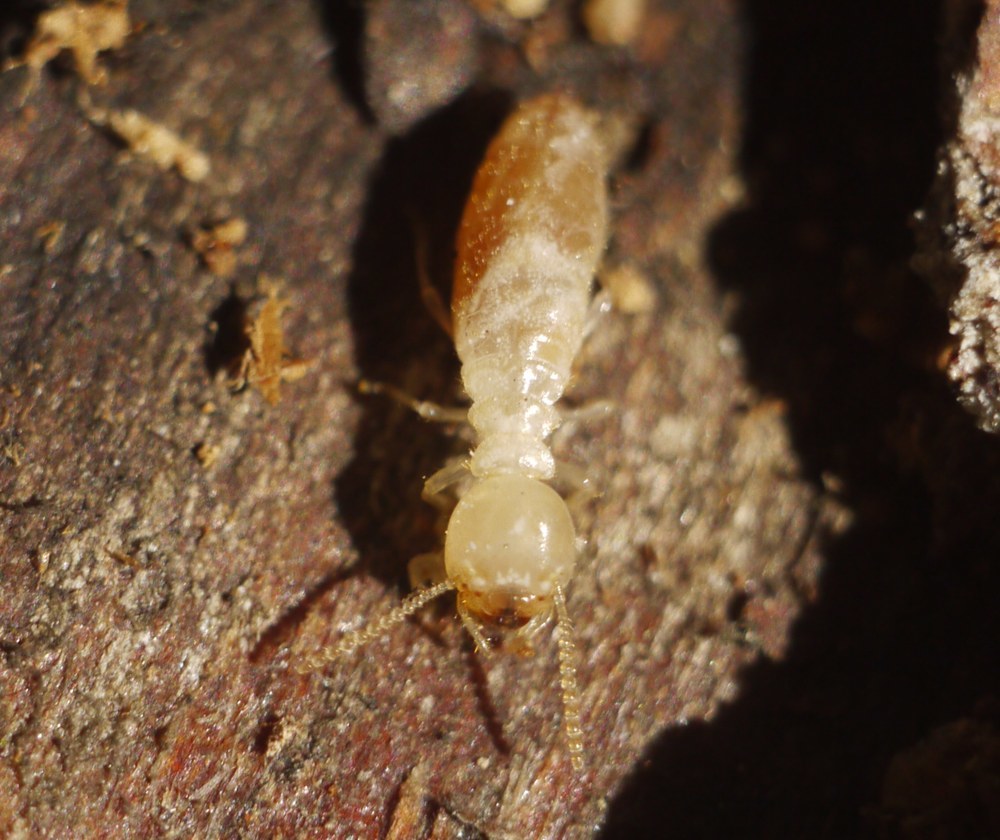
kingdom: Animalia
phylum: Arthropoda
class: Insecta
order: Blattodea
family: Rhinotermitidae
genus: Reticulitermes
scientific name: Reticulitermes lucifugus
